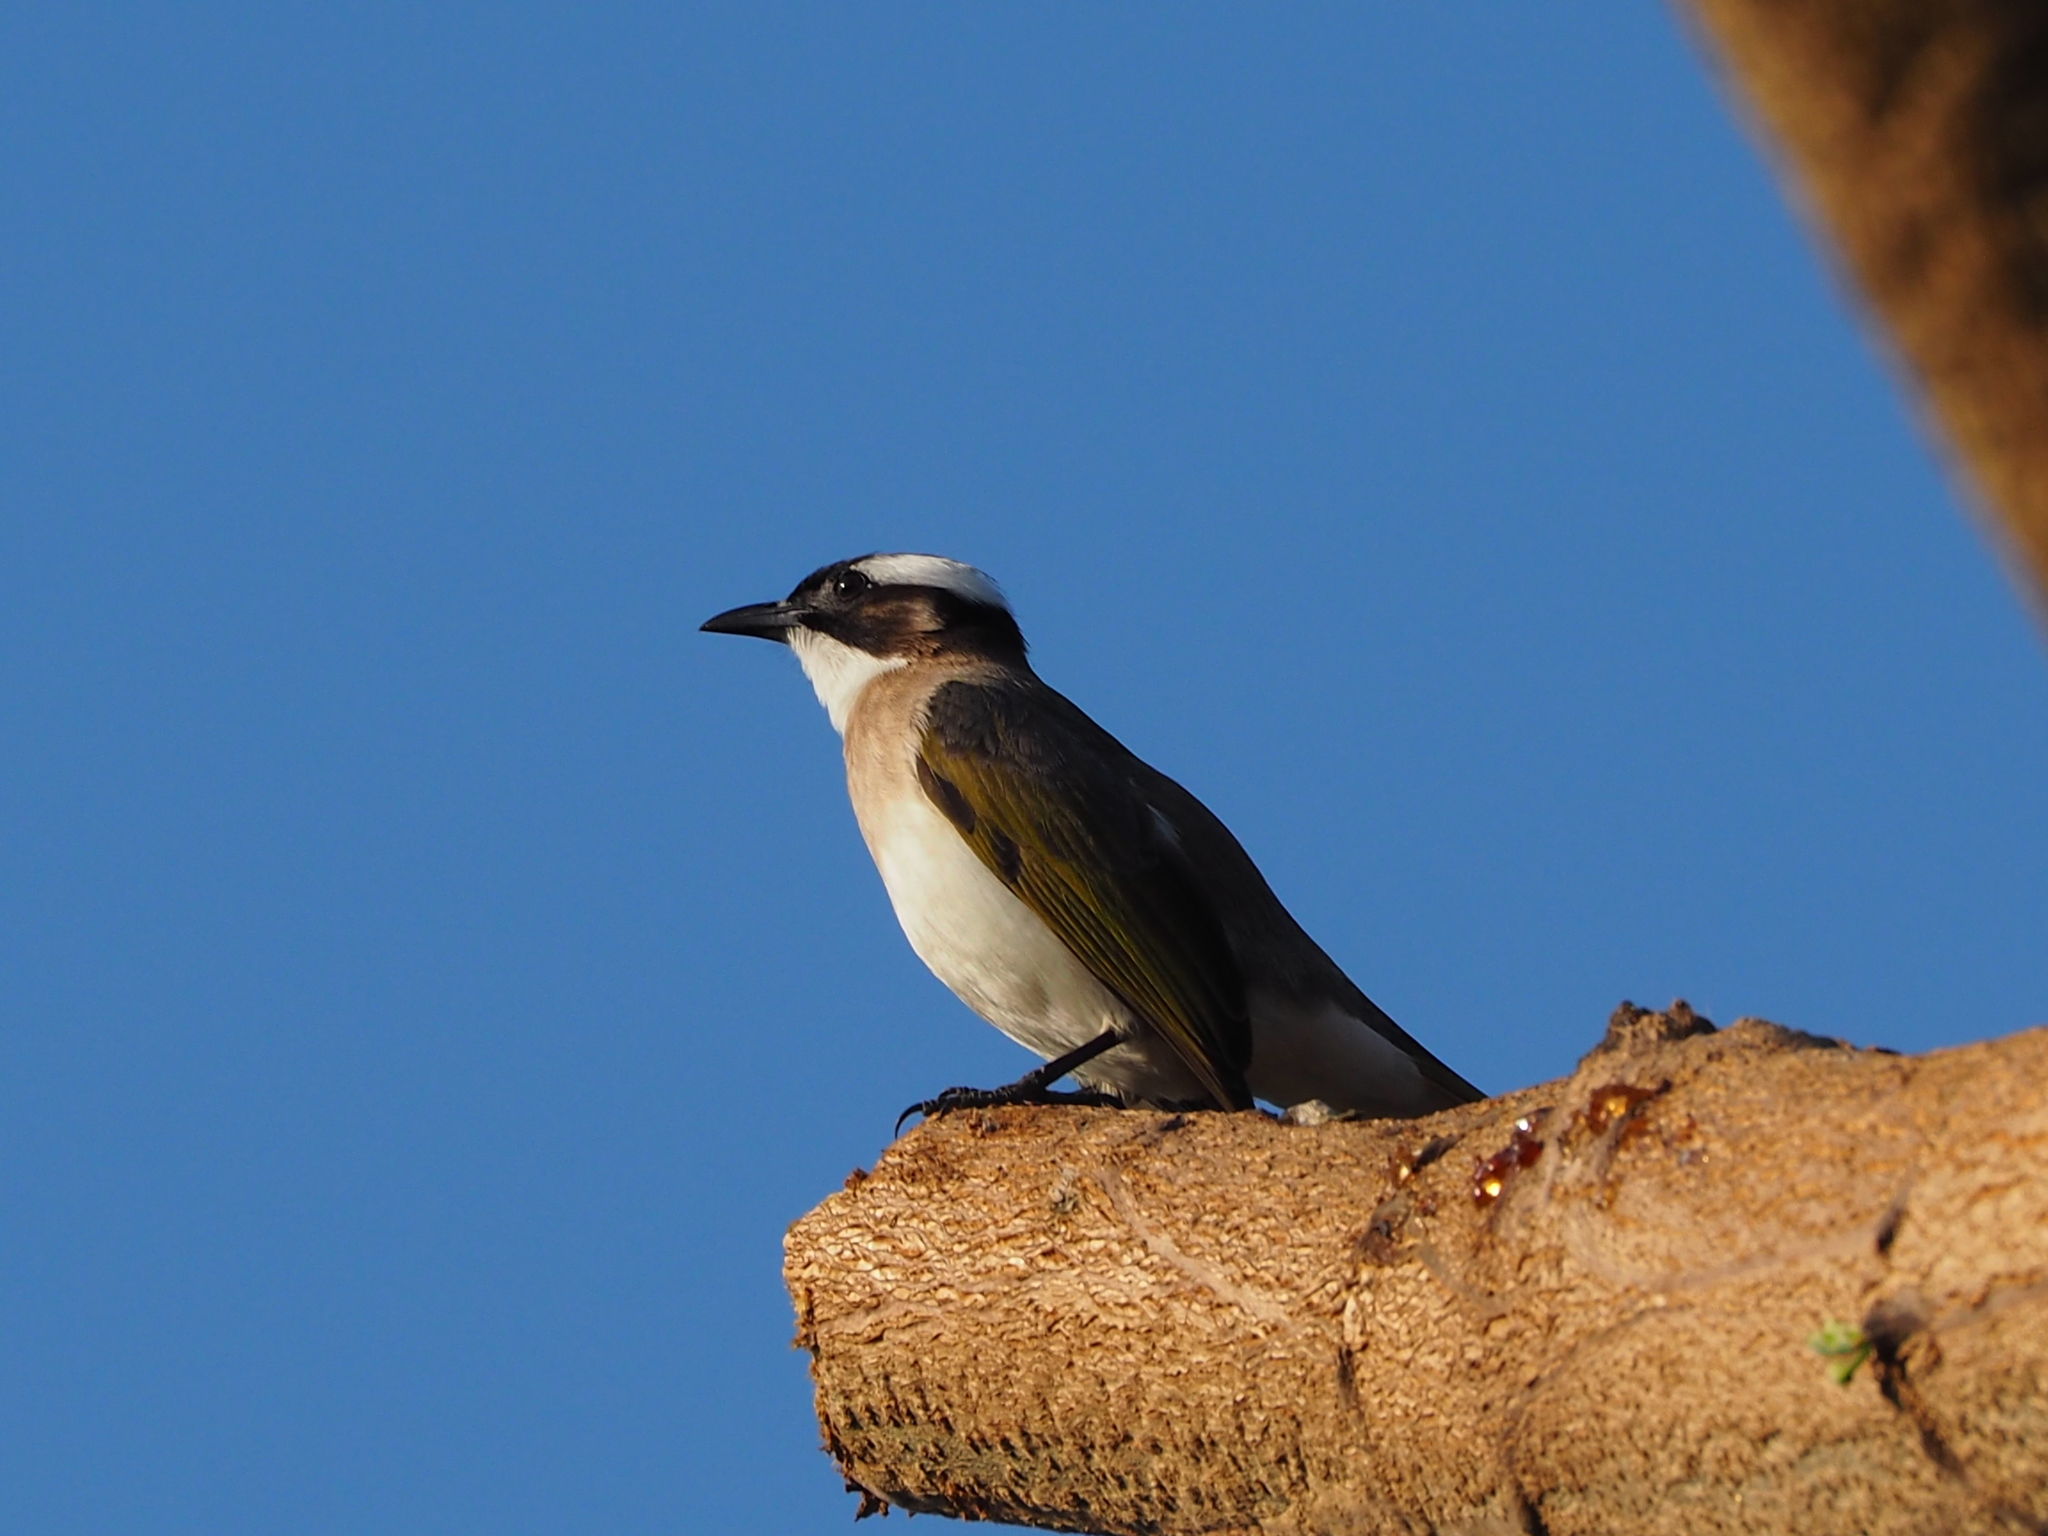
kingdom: Animalia
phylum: Chordata
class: Aves
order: Passeriformes
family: Pycnonotidae
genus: Pycnonotus
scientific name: Pycnonotus sinensis
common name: Light-vented bulbul
